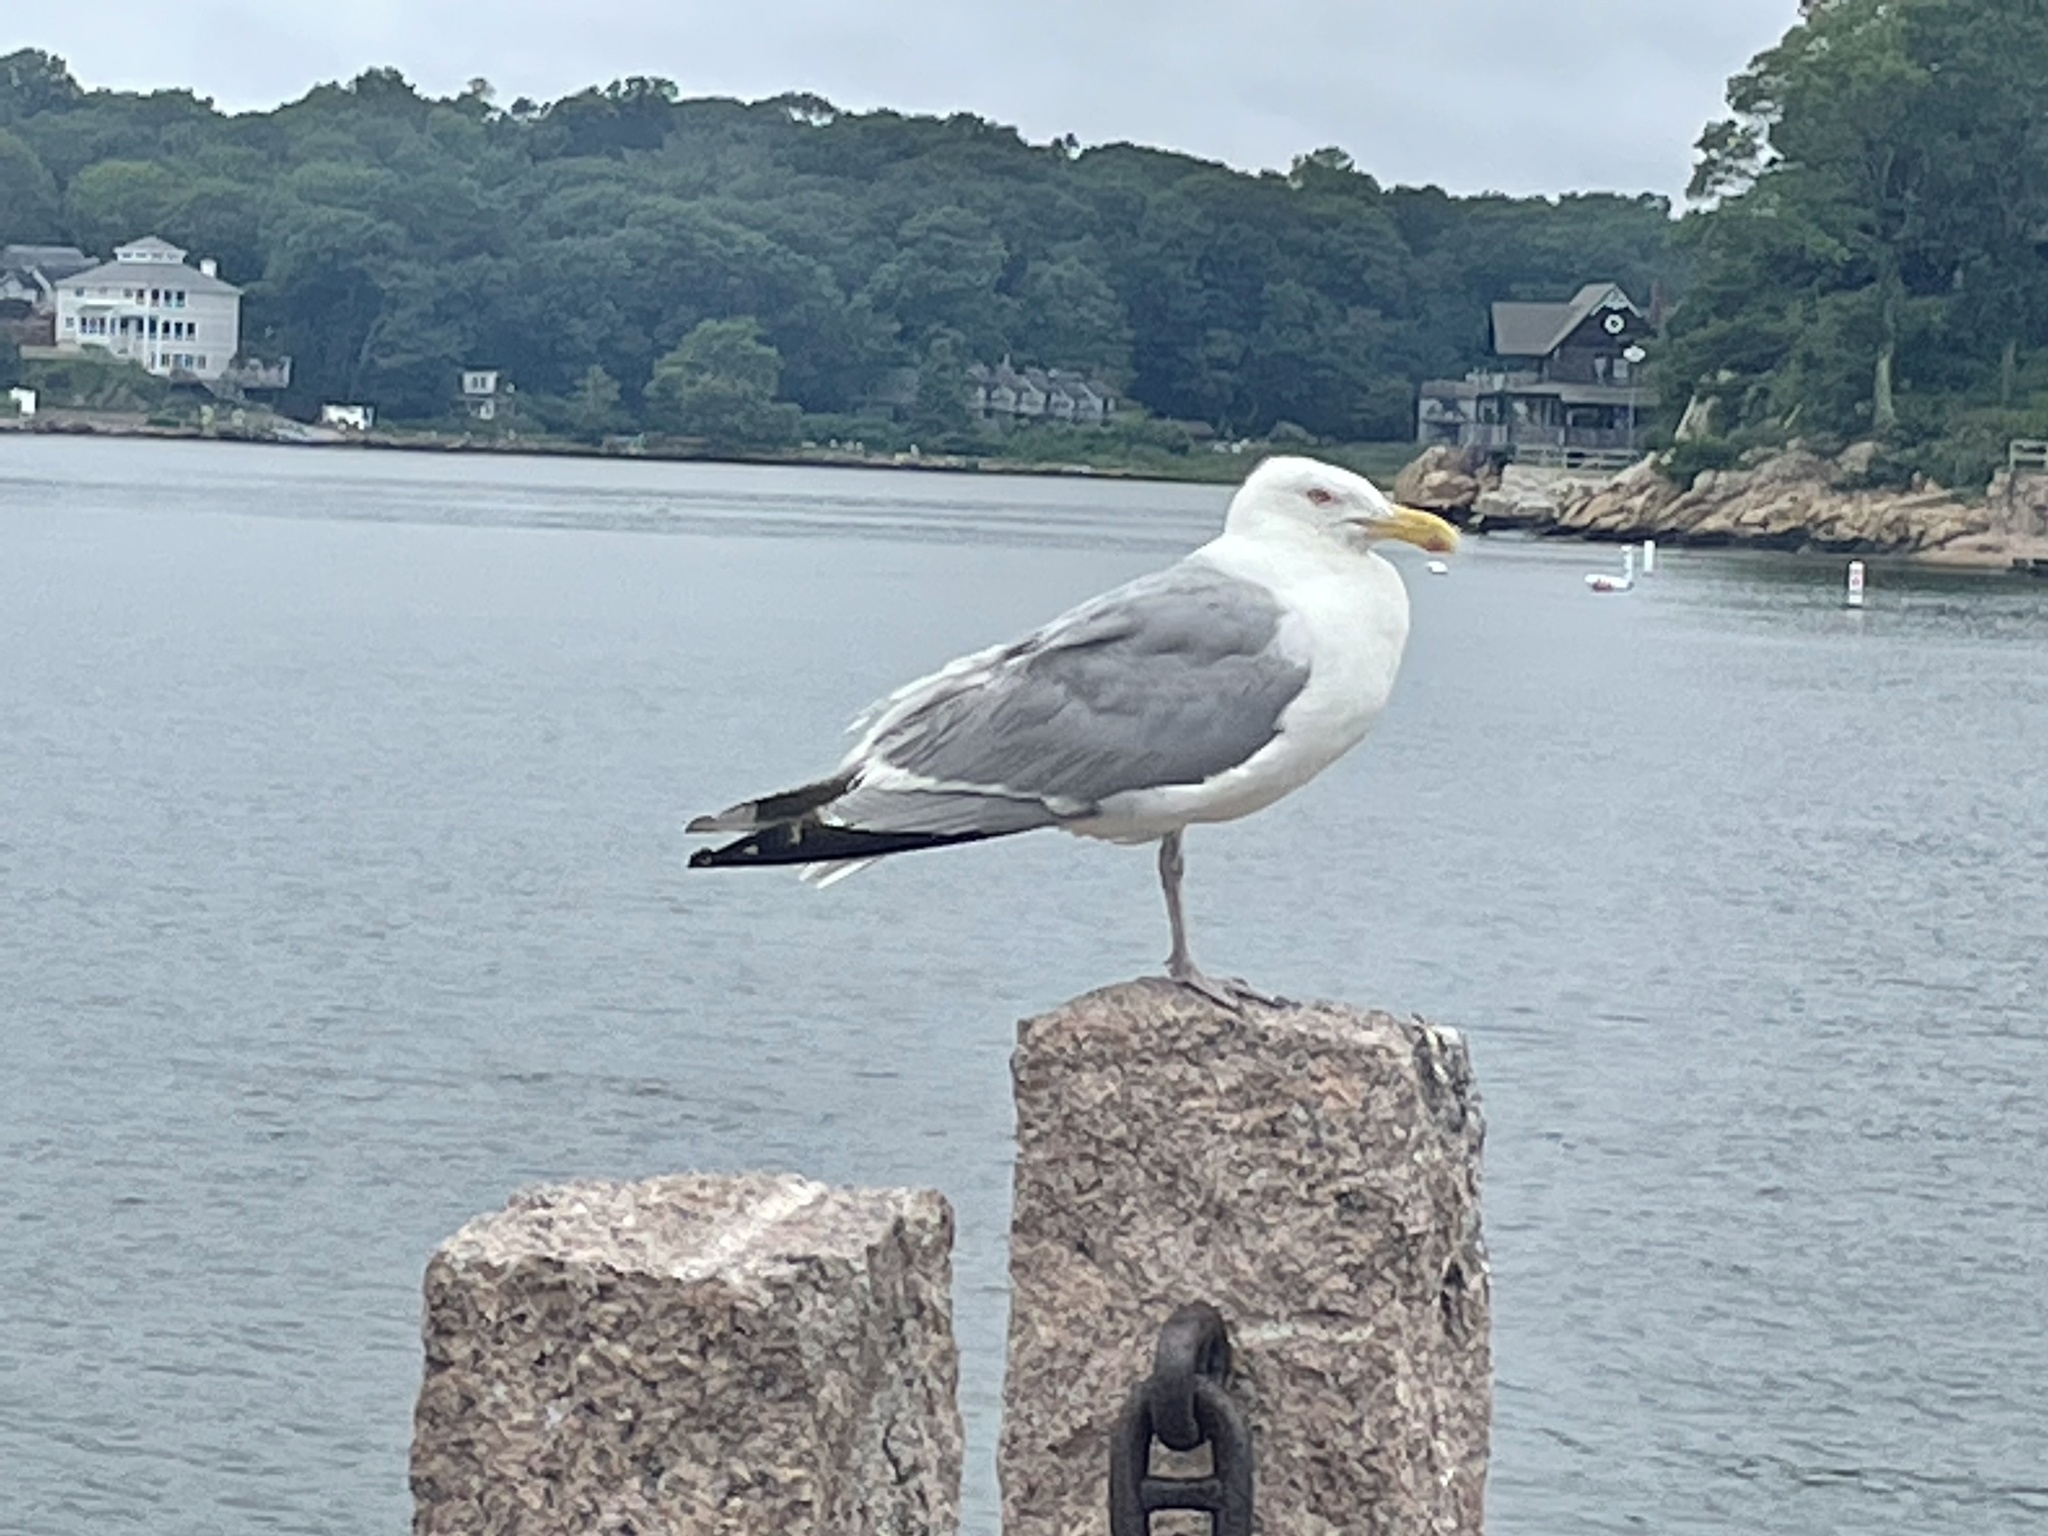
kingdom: Animalia
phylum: Chordata
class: Aves
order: Charadriiformes
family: Laridae
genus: Larus
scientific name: Larus argentatus
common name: Herring gull
